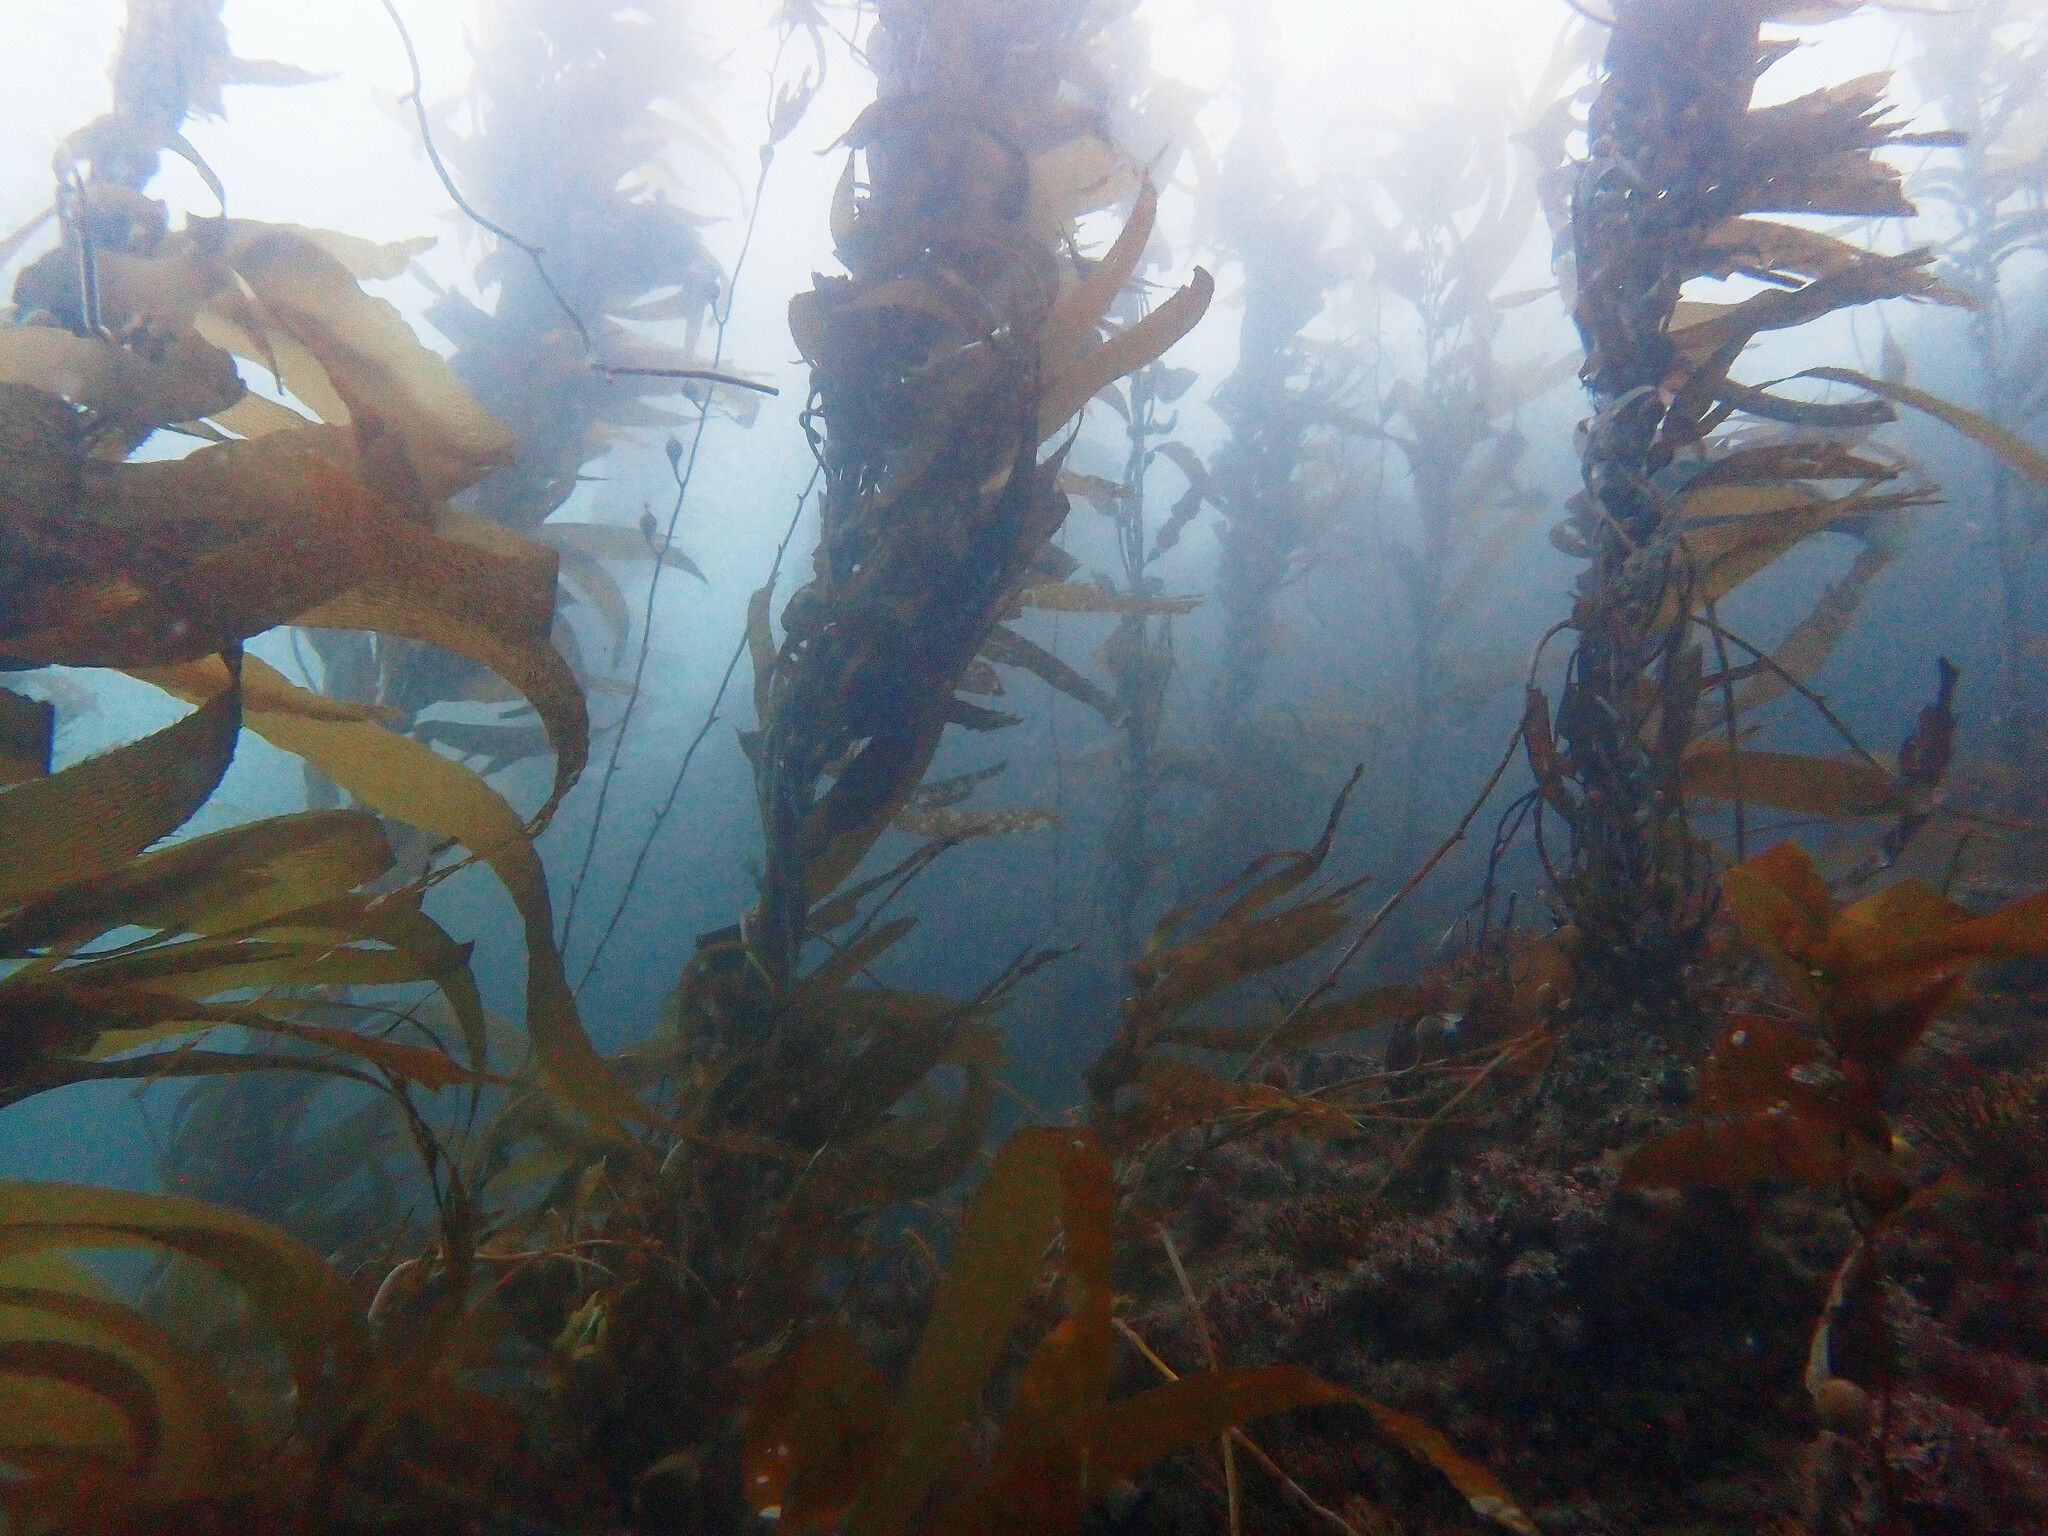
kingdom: Chromista
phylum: Ochrophyta
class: Phaeophyceae
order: Laminariales
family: Laminariaceae
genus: Macrocystis
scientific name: Macrocystis pyrifera
